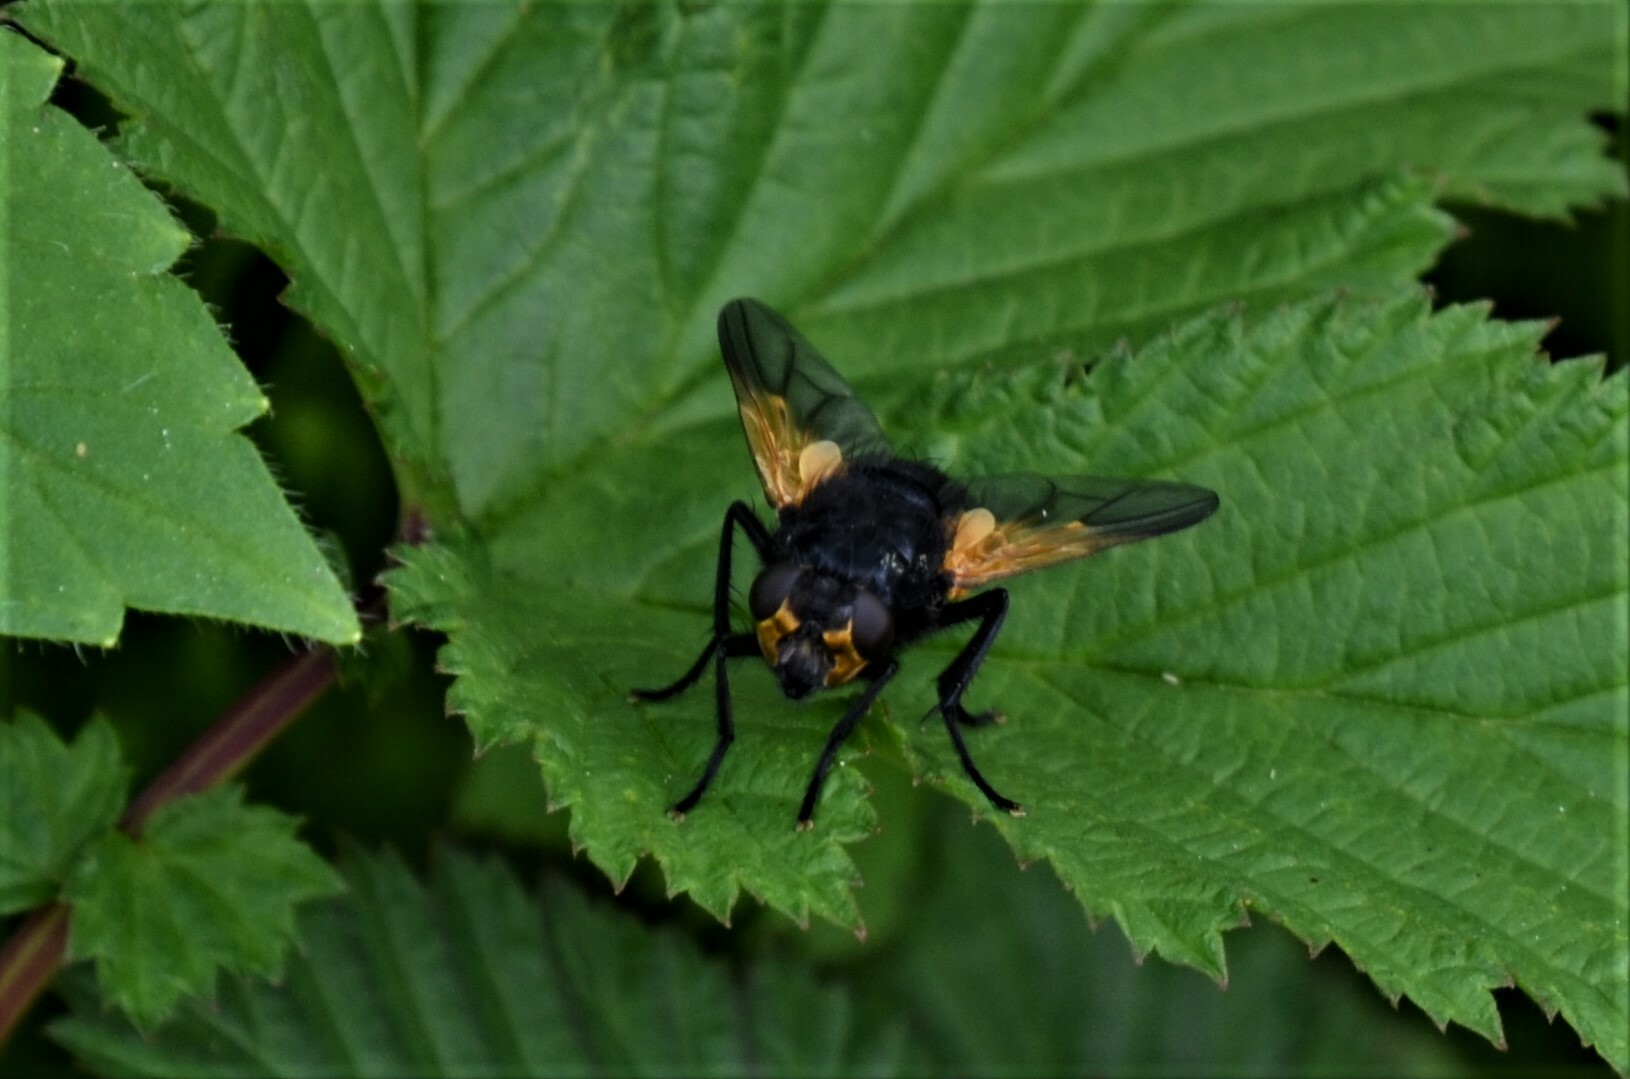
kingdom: Animalia
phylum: Arthropoda
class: Insecta
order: Diptera
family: Muscidae
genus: Mesembrina
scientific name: Mesembrina meridiana
